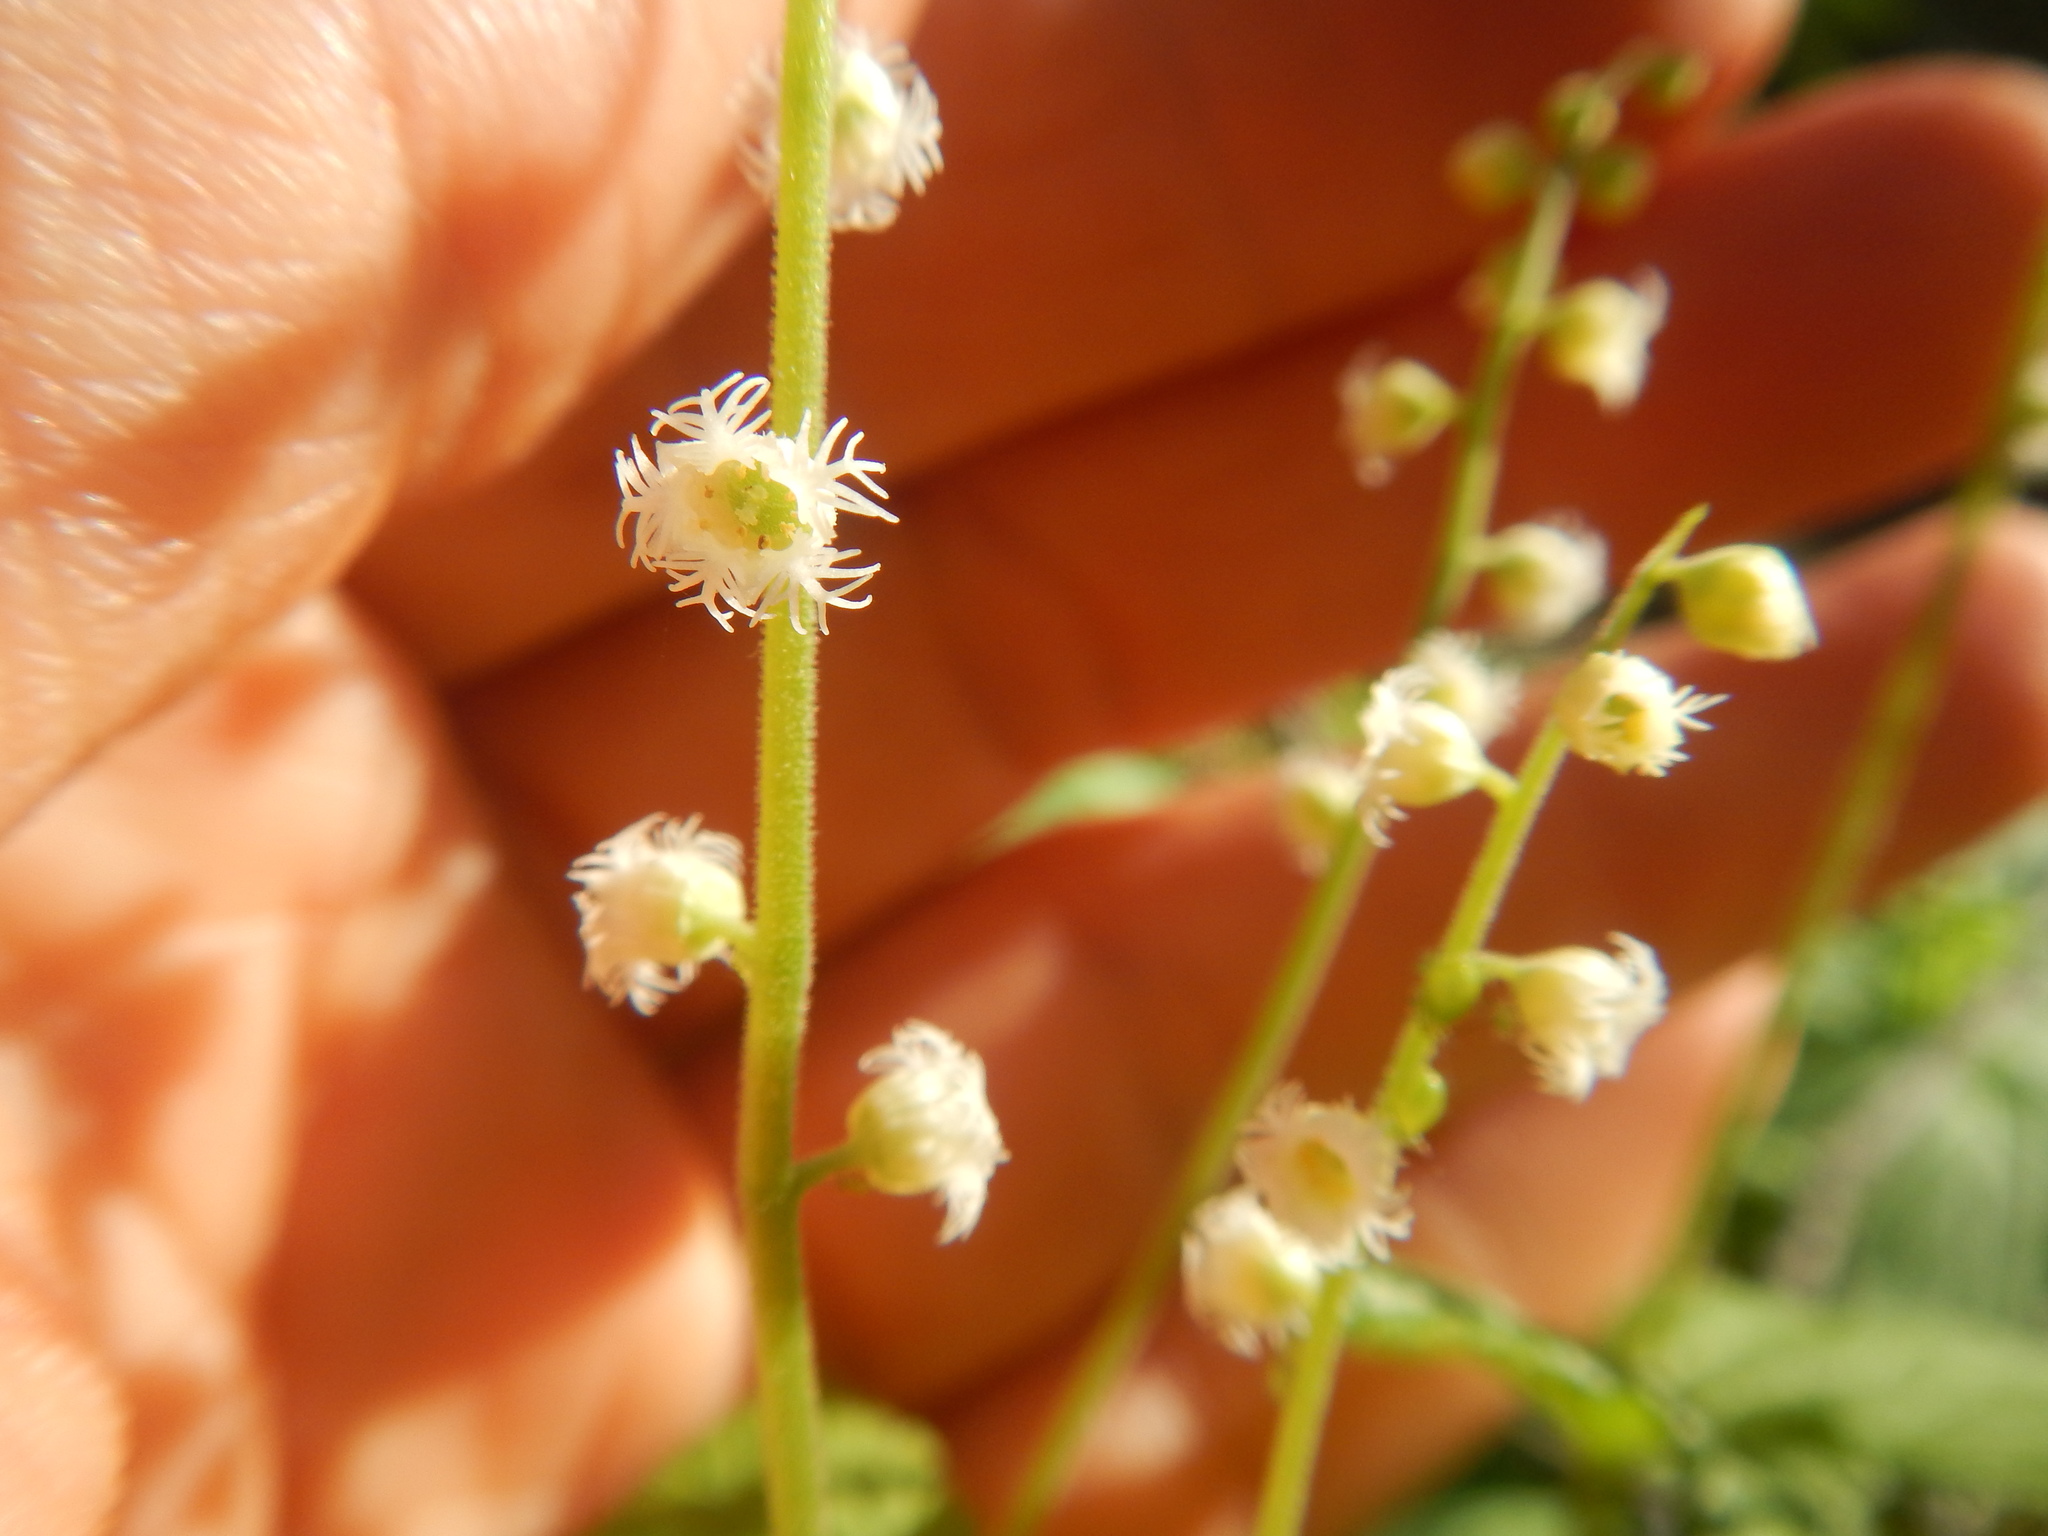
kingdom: Plantae
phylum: Tracheophyta
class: Magnoliopsida
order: Saxifragales
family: Saxifragaceae
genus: Mitella
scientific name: Mitella diphylla
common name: Coolwort
